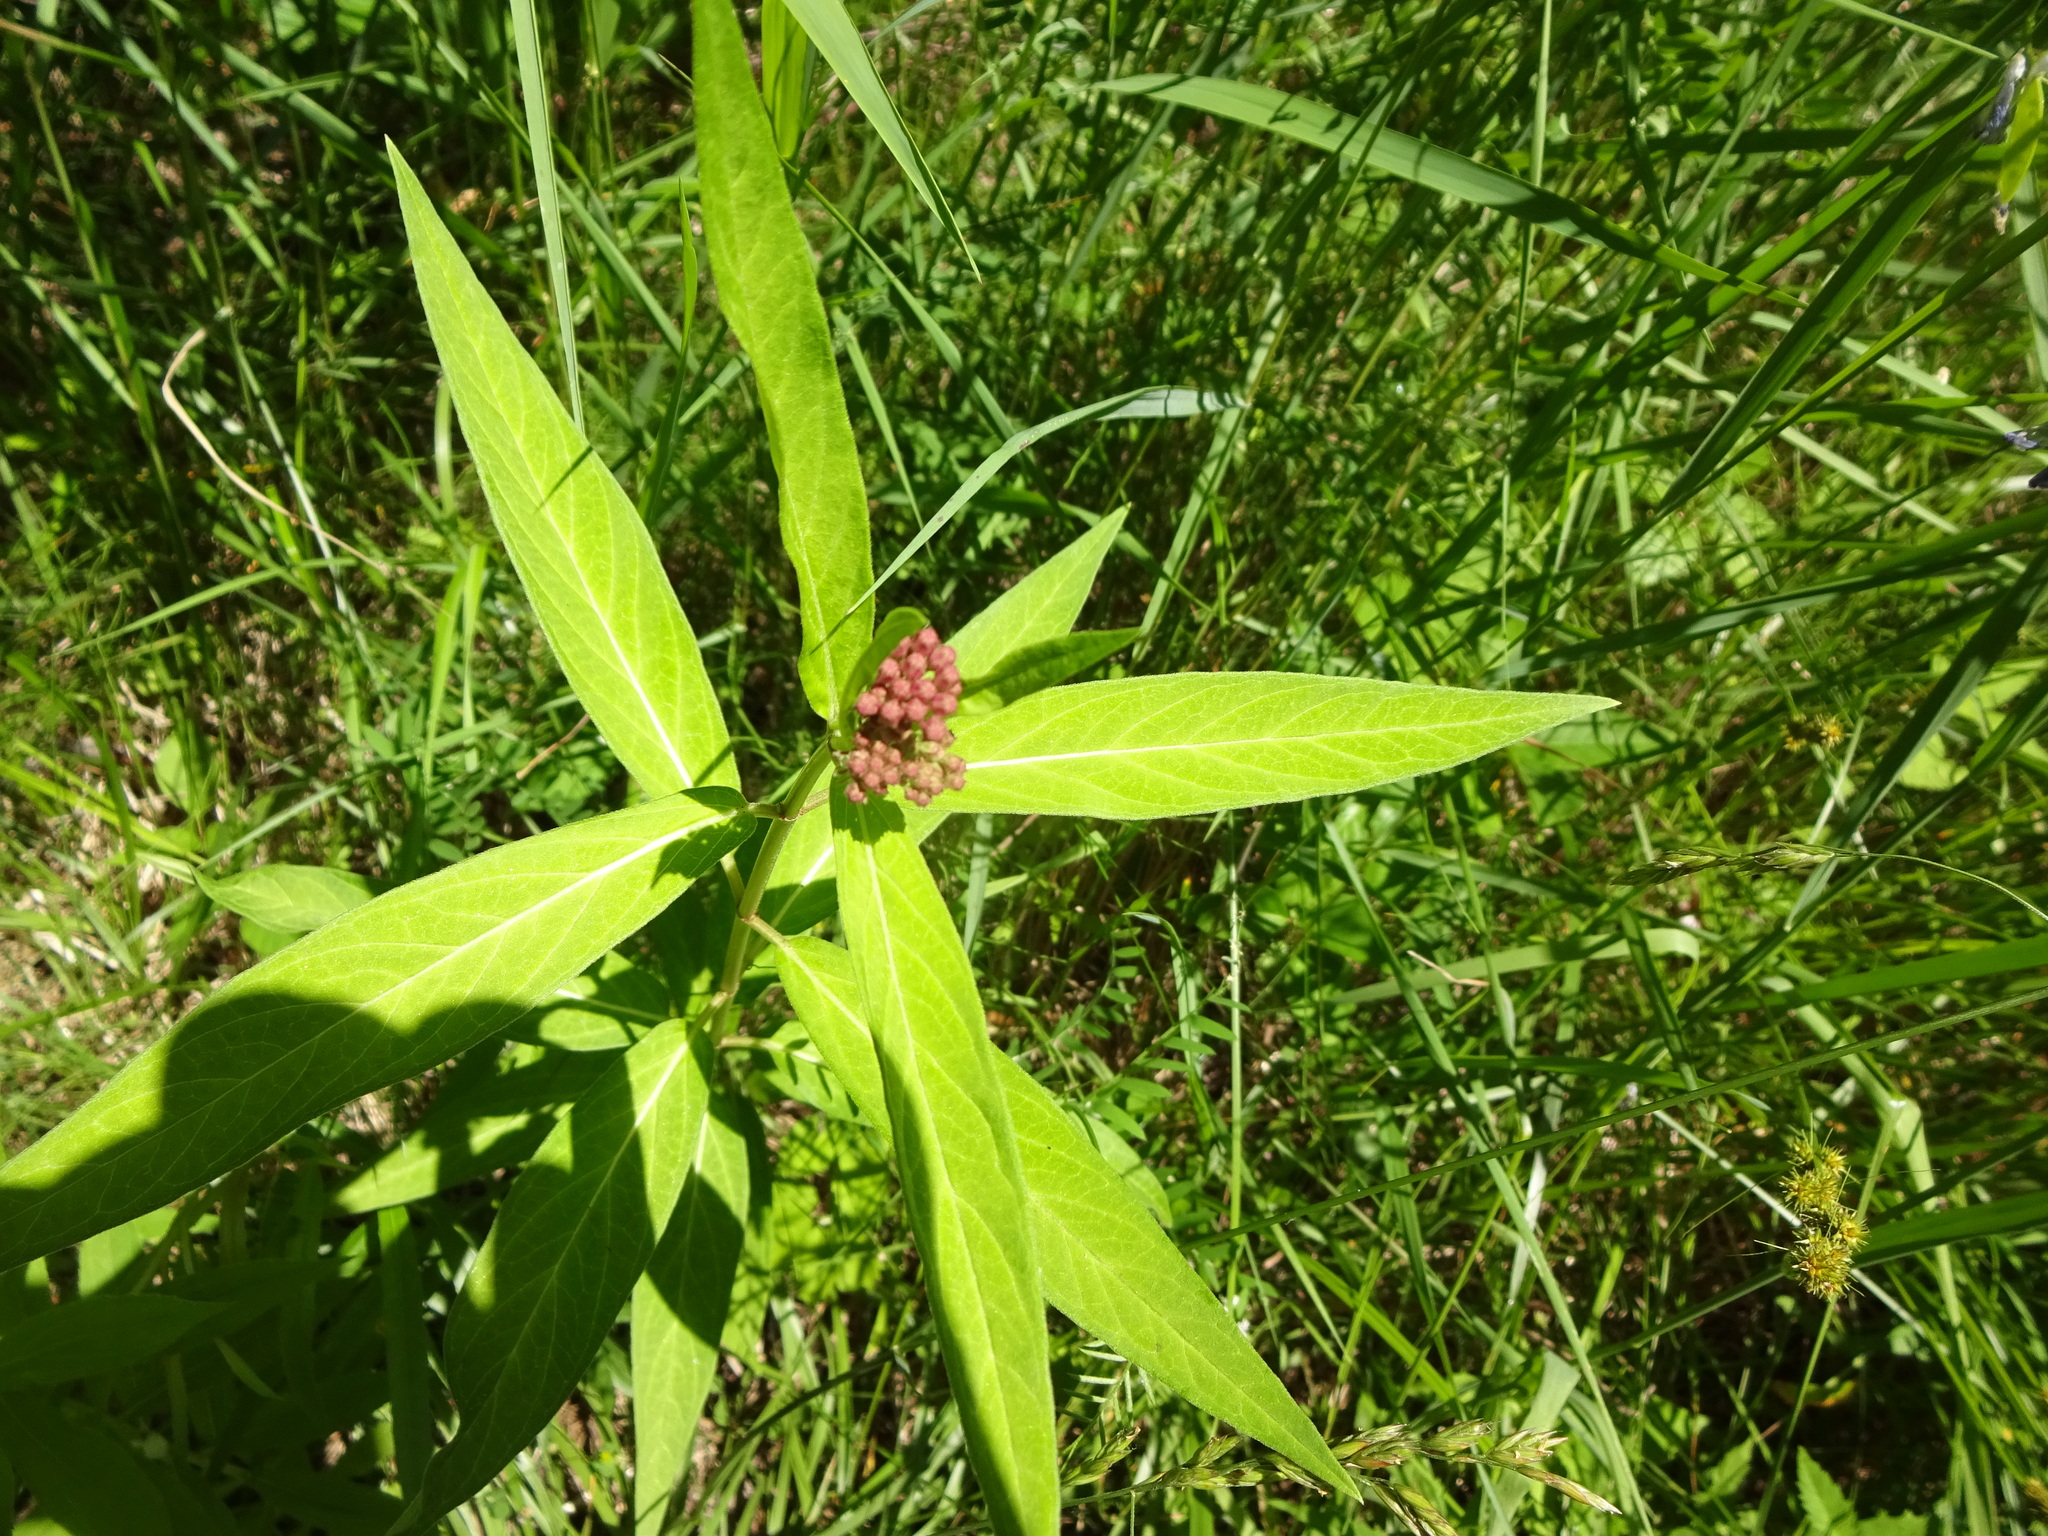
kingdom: Plantae
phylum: Tracheophyta
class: Magnoliopsida
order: Gentianales
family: Apocynaceae
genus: Asclepias
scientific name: Asclepias incarnata
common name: Swamp milkweed
